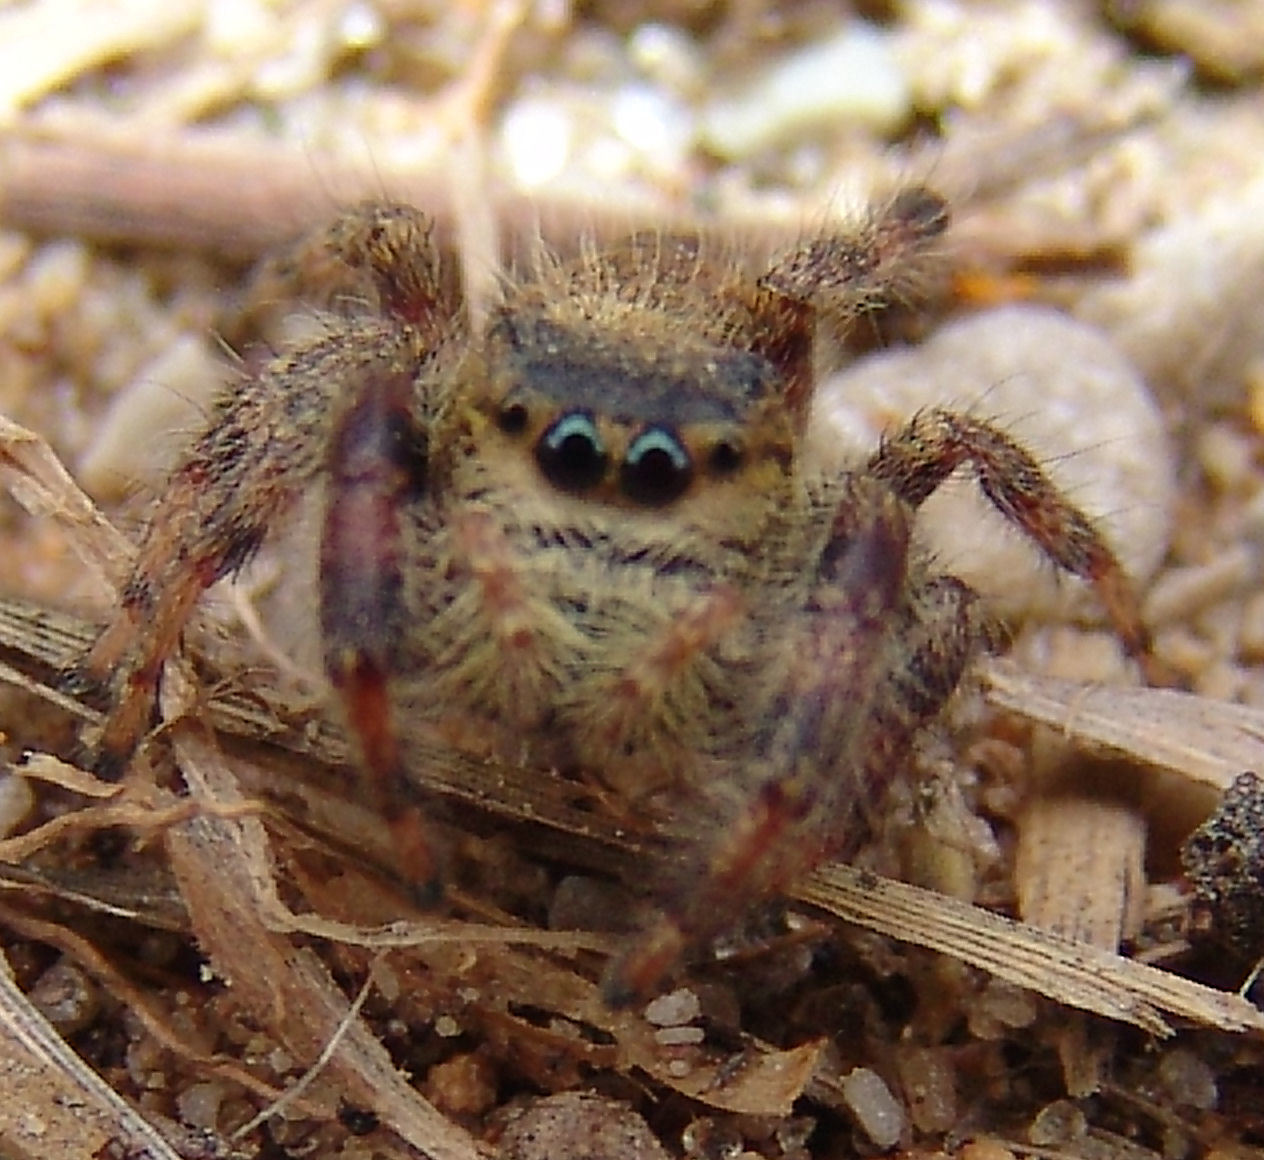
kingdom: Animalia
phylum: Arthropoda
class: Arachnida
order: Araneae
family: Salticidae
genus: Phidippus
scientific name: Phidippus princeps
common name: Grayish jumping spider
